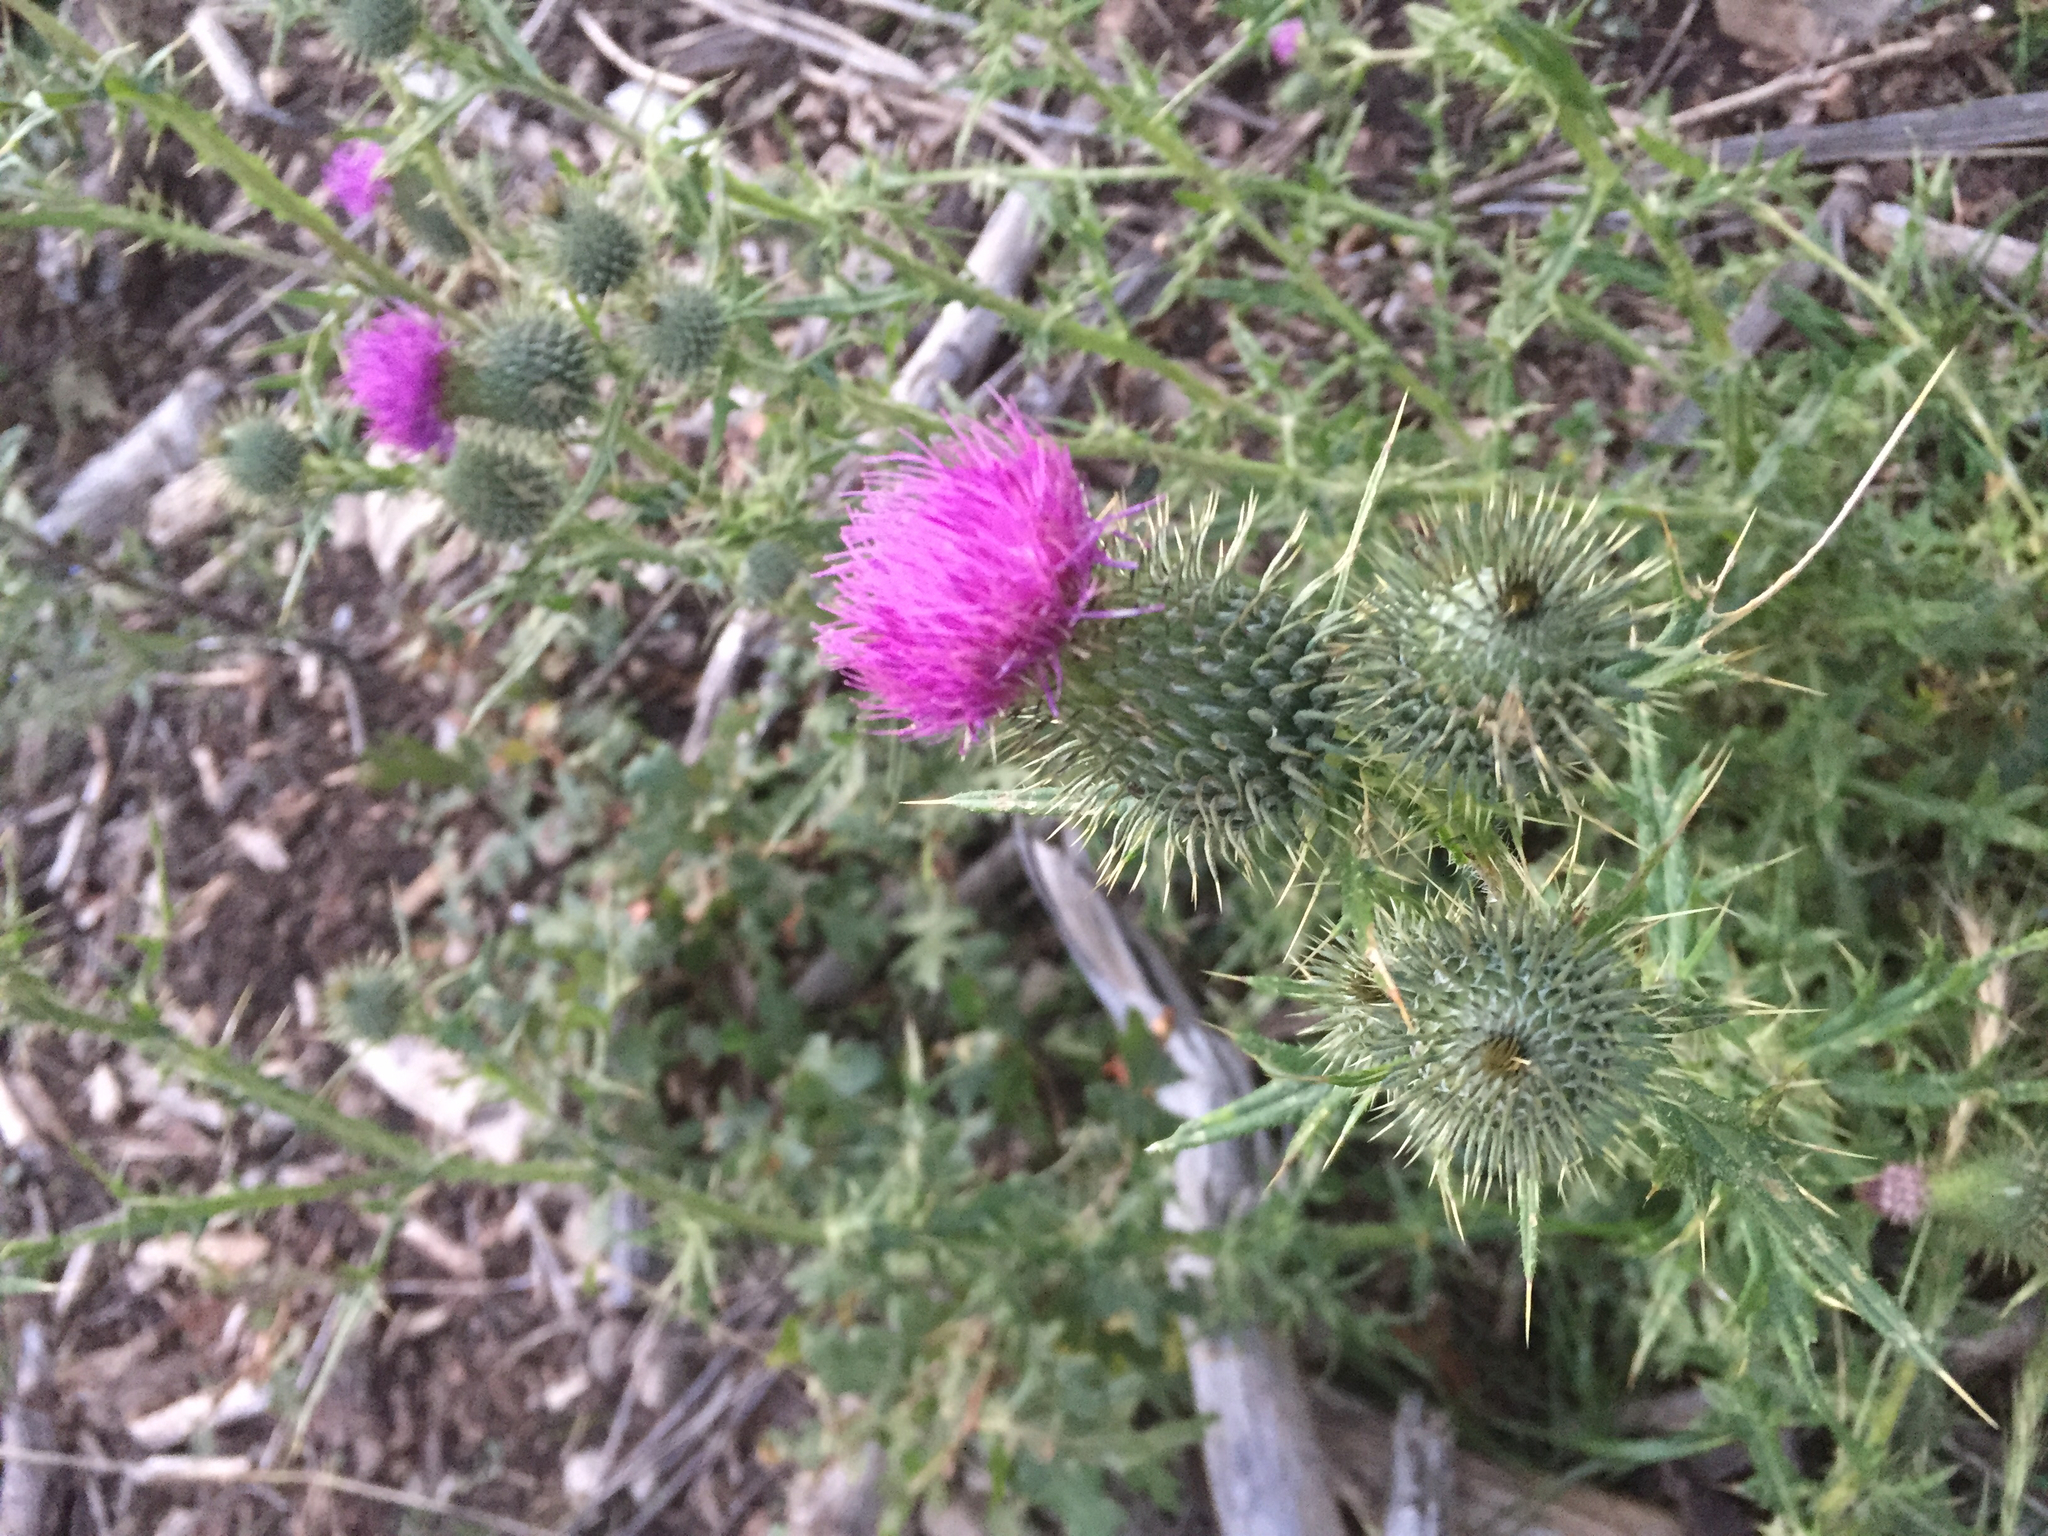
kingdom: Plantae
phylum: Tracheophyta
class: Magnoliopsida
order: Asterales
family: Asteraceae
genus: Cirsium
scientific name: Cirsium vulgare
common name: Bull thistle
